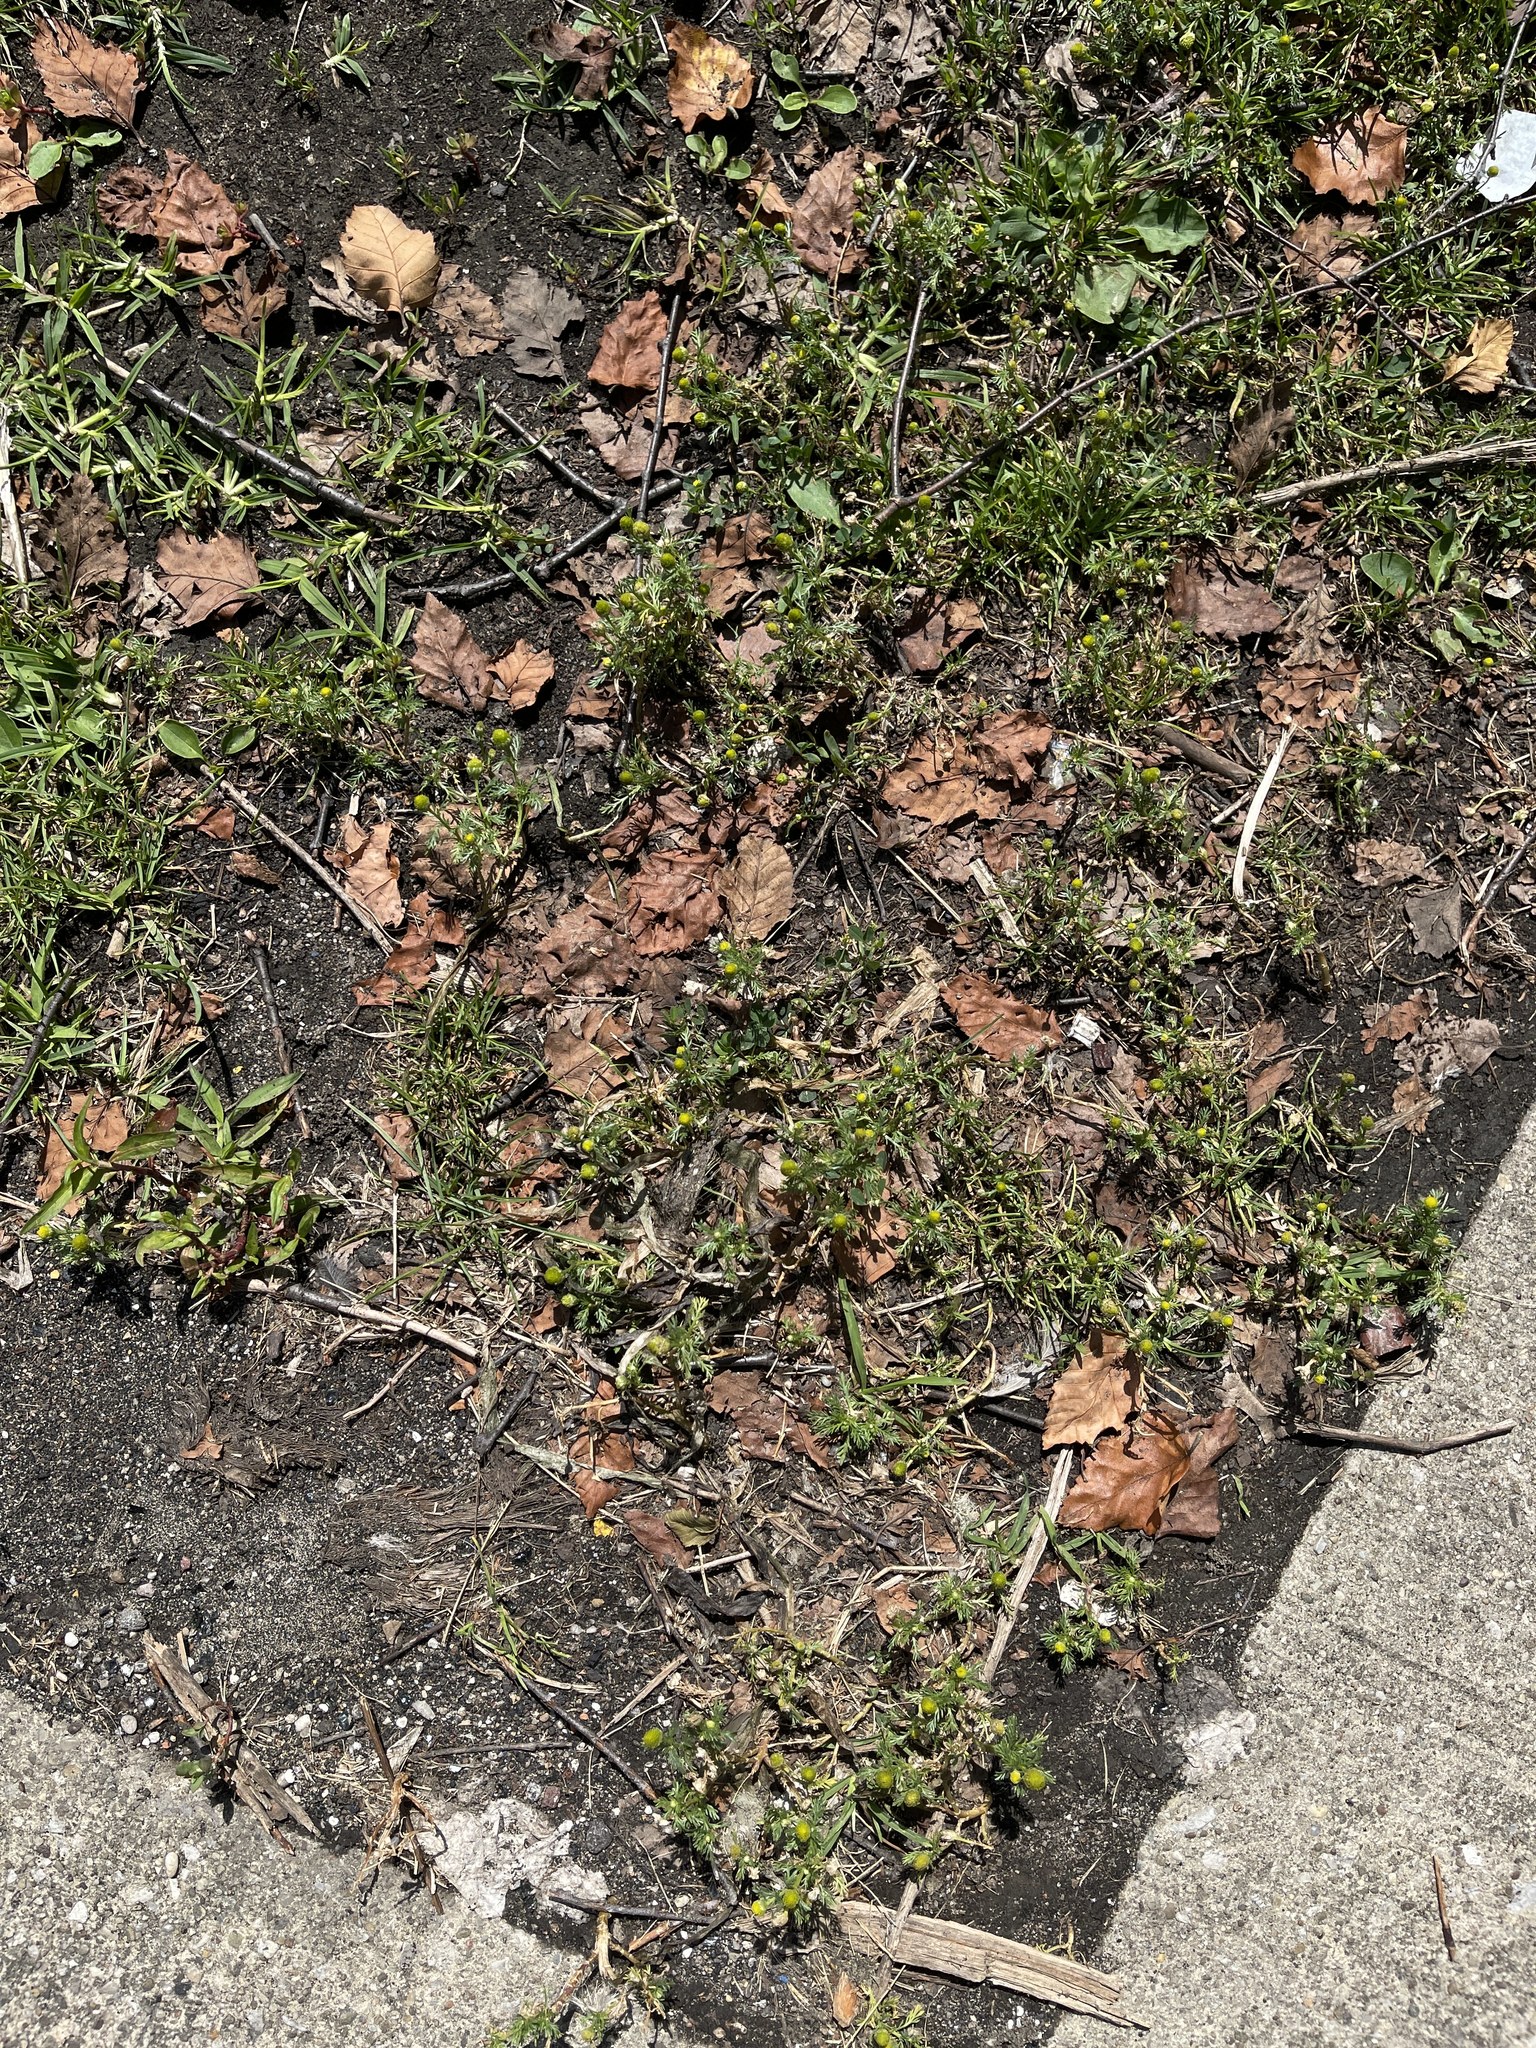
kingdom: Plantae
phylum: Tracheophyta
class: Magnoliopsida
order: Asterales
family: Asteraceae
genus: Matricaria
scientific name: Matricaria discoidea
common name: Disc mayweed
